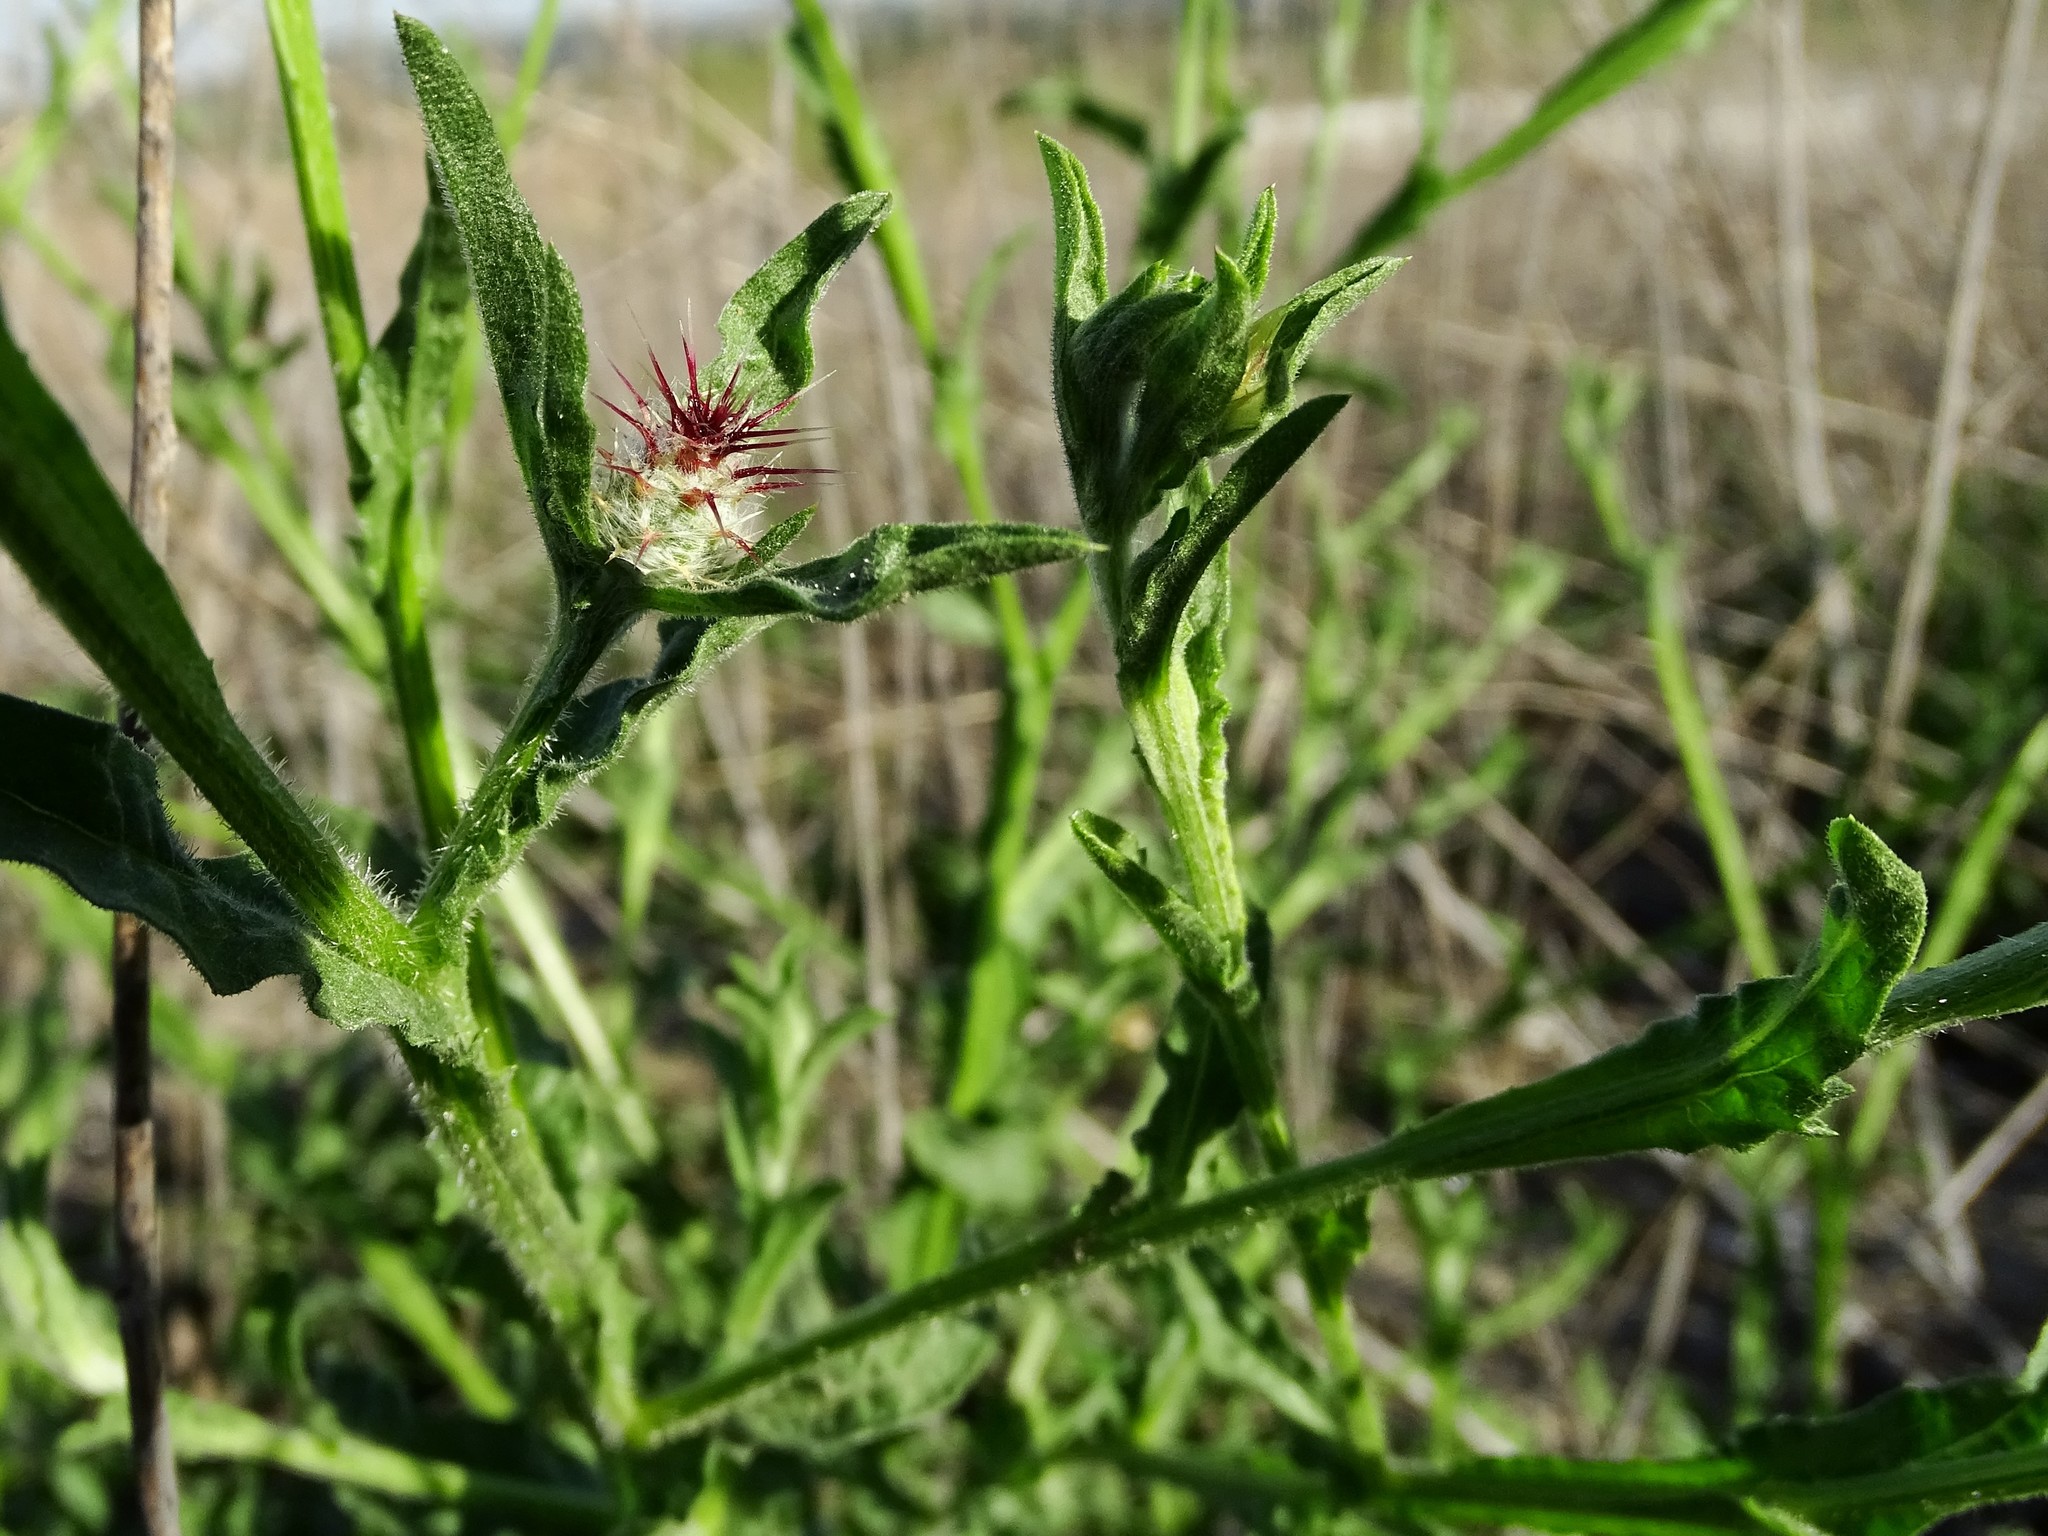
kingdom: Plantae
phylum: Tracheophyta
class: Magnoliopsida
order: Asterales
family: Asteraceae
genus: Centaurea
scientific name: Centaurea melitensis
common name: Maltese star-thistle
